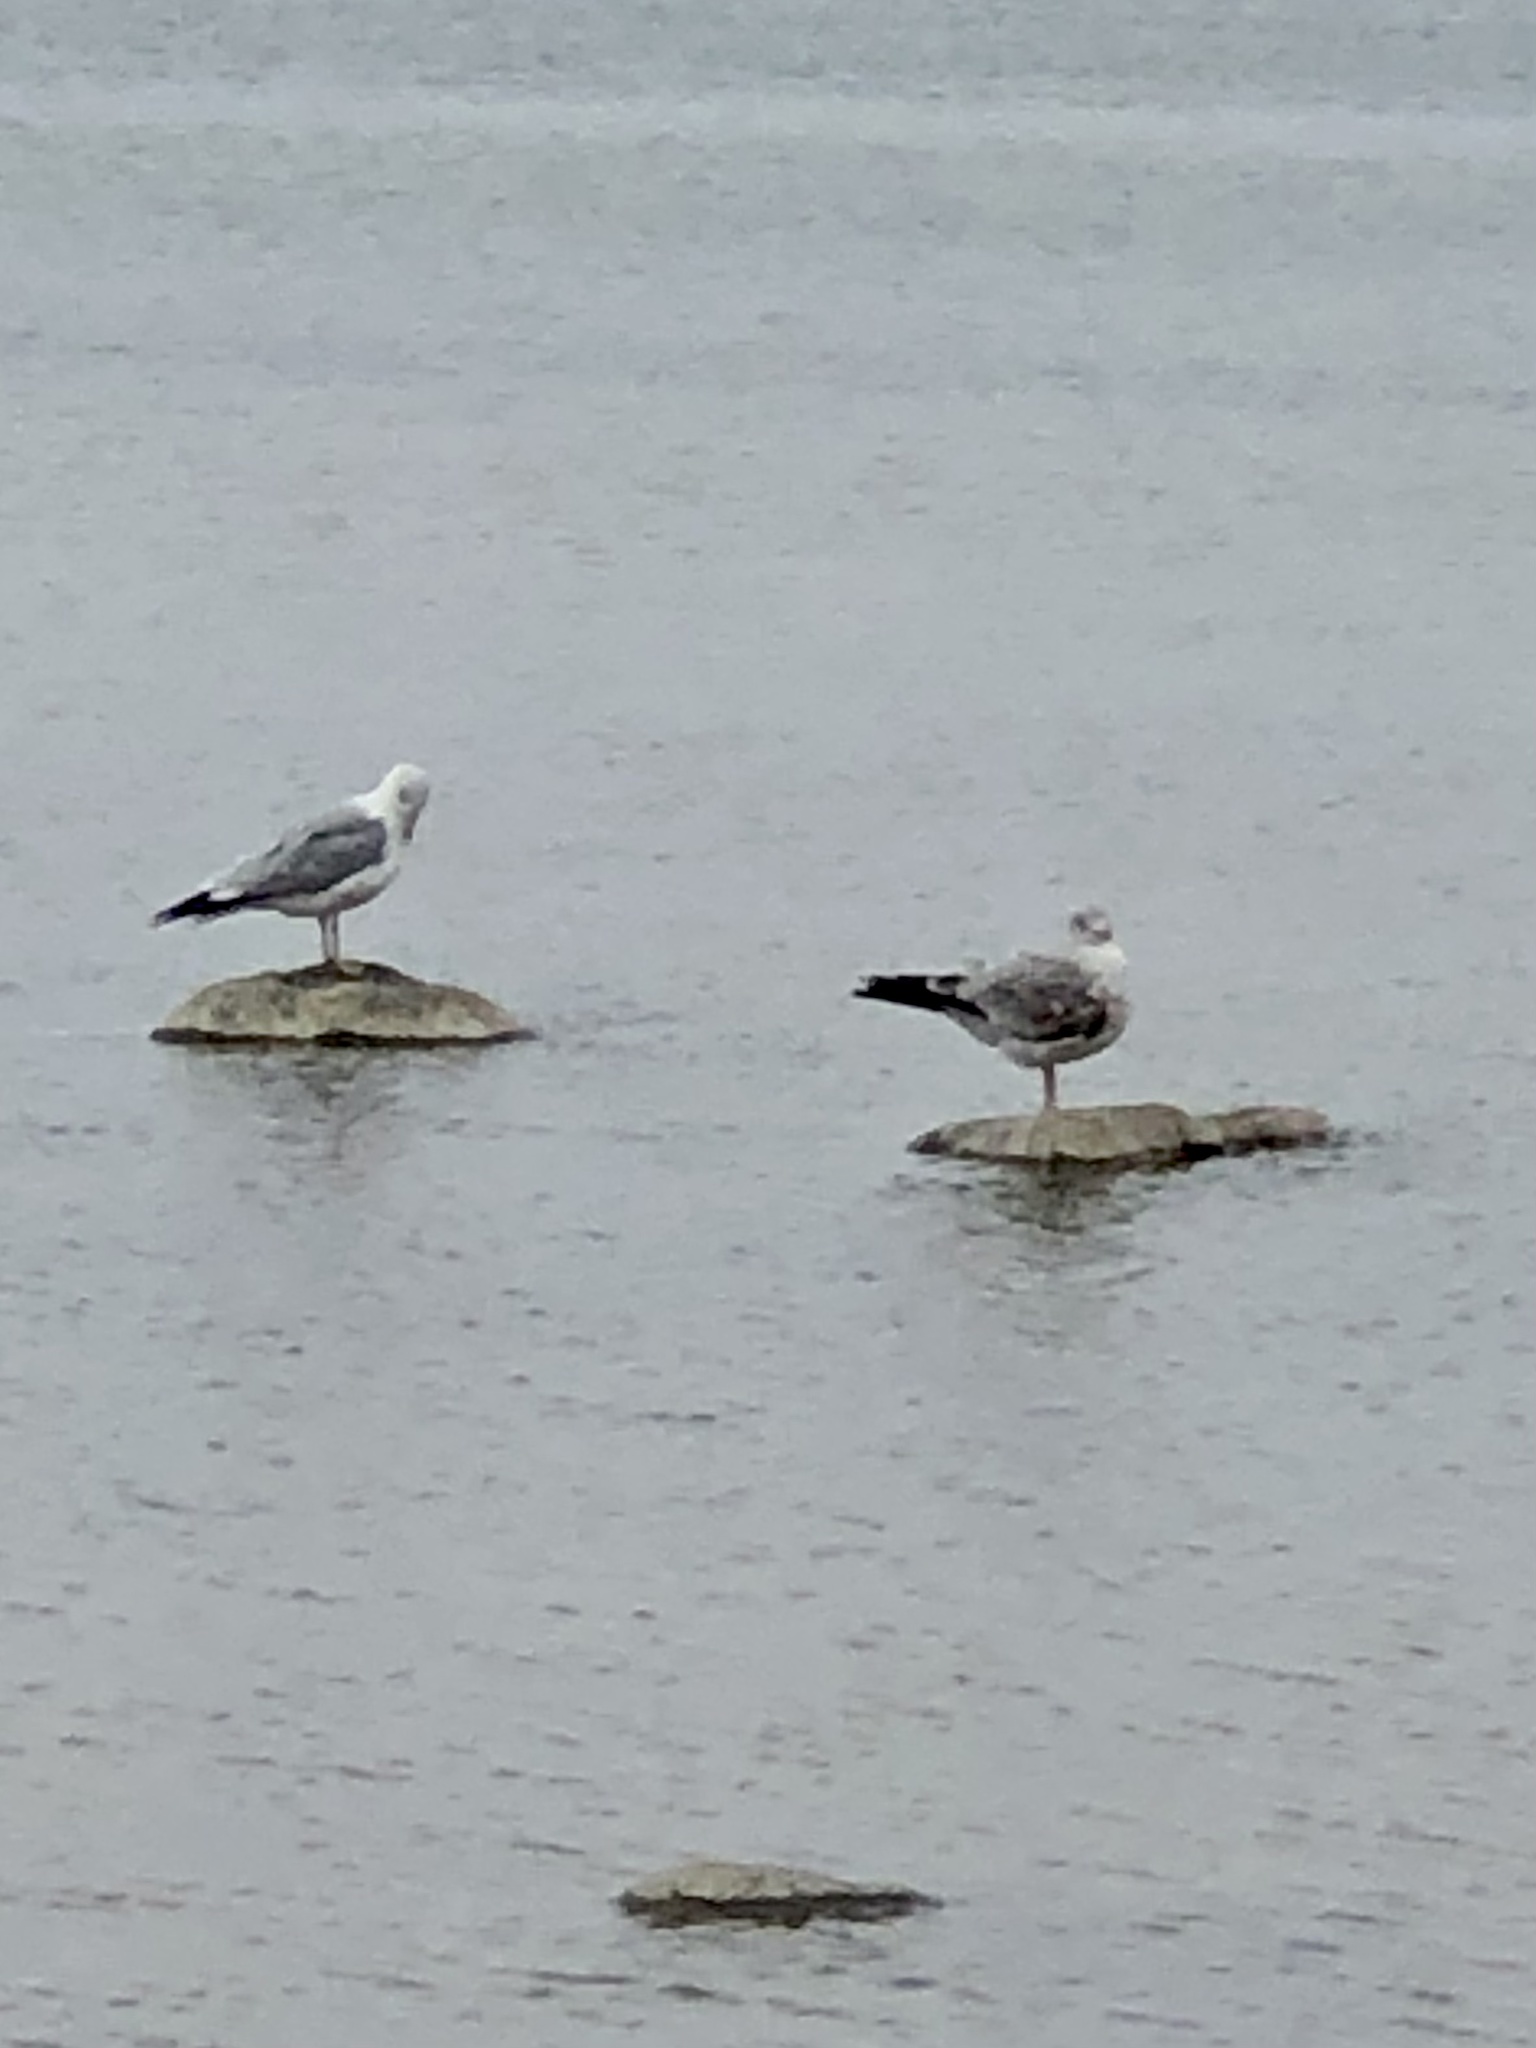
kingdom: Animalia
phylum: Chordata
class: Aves
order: Charadriiformes
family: Laridae
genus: Larus
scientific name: Larus delawarensis
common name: Ring-billed gull
